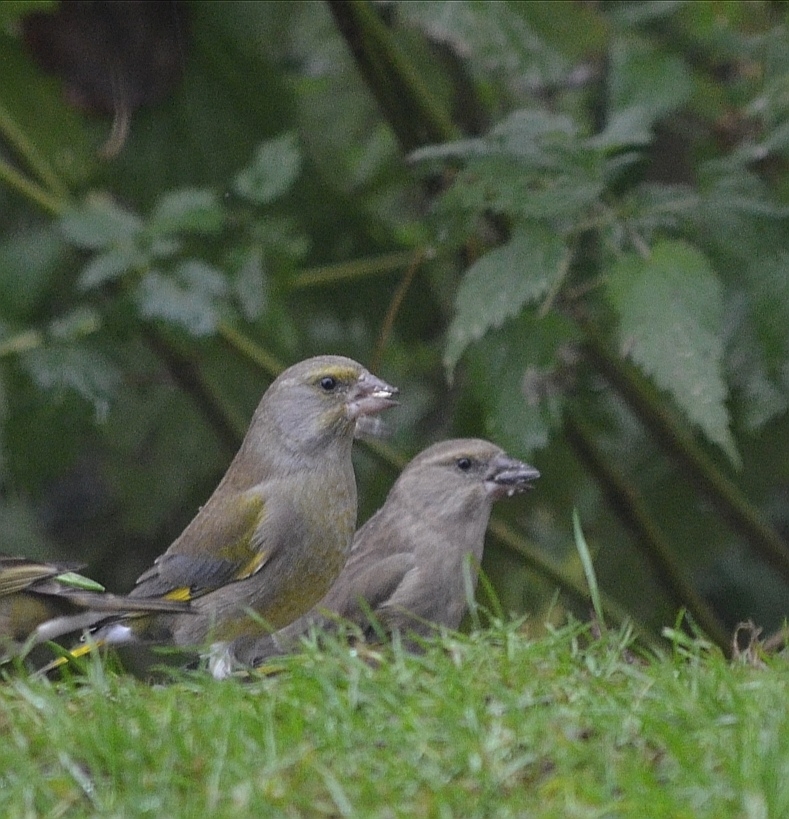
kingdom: Plantae
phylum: Tracheophyta
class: Liliopsida
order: Poales
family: Poaceae
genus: Chloris
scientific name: Chloris chloris
